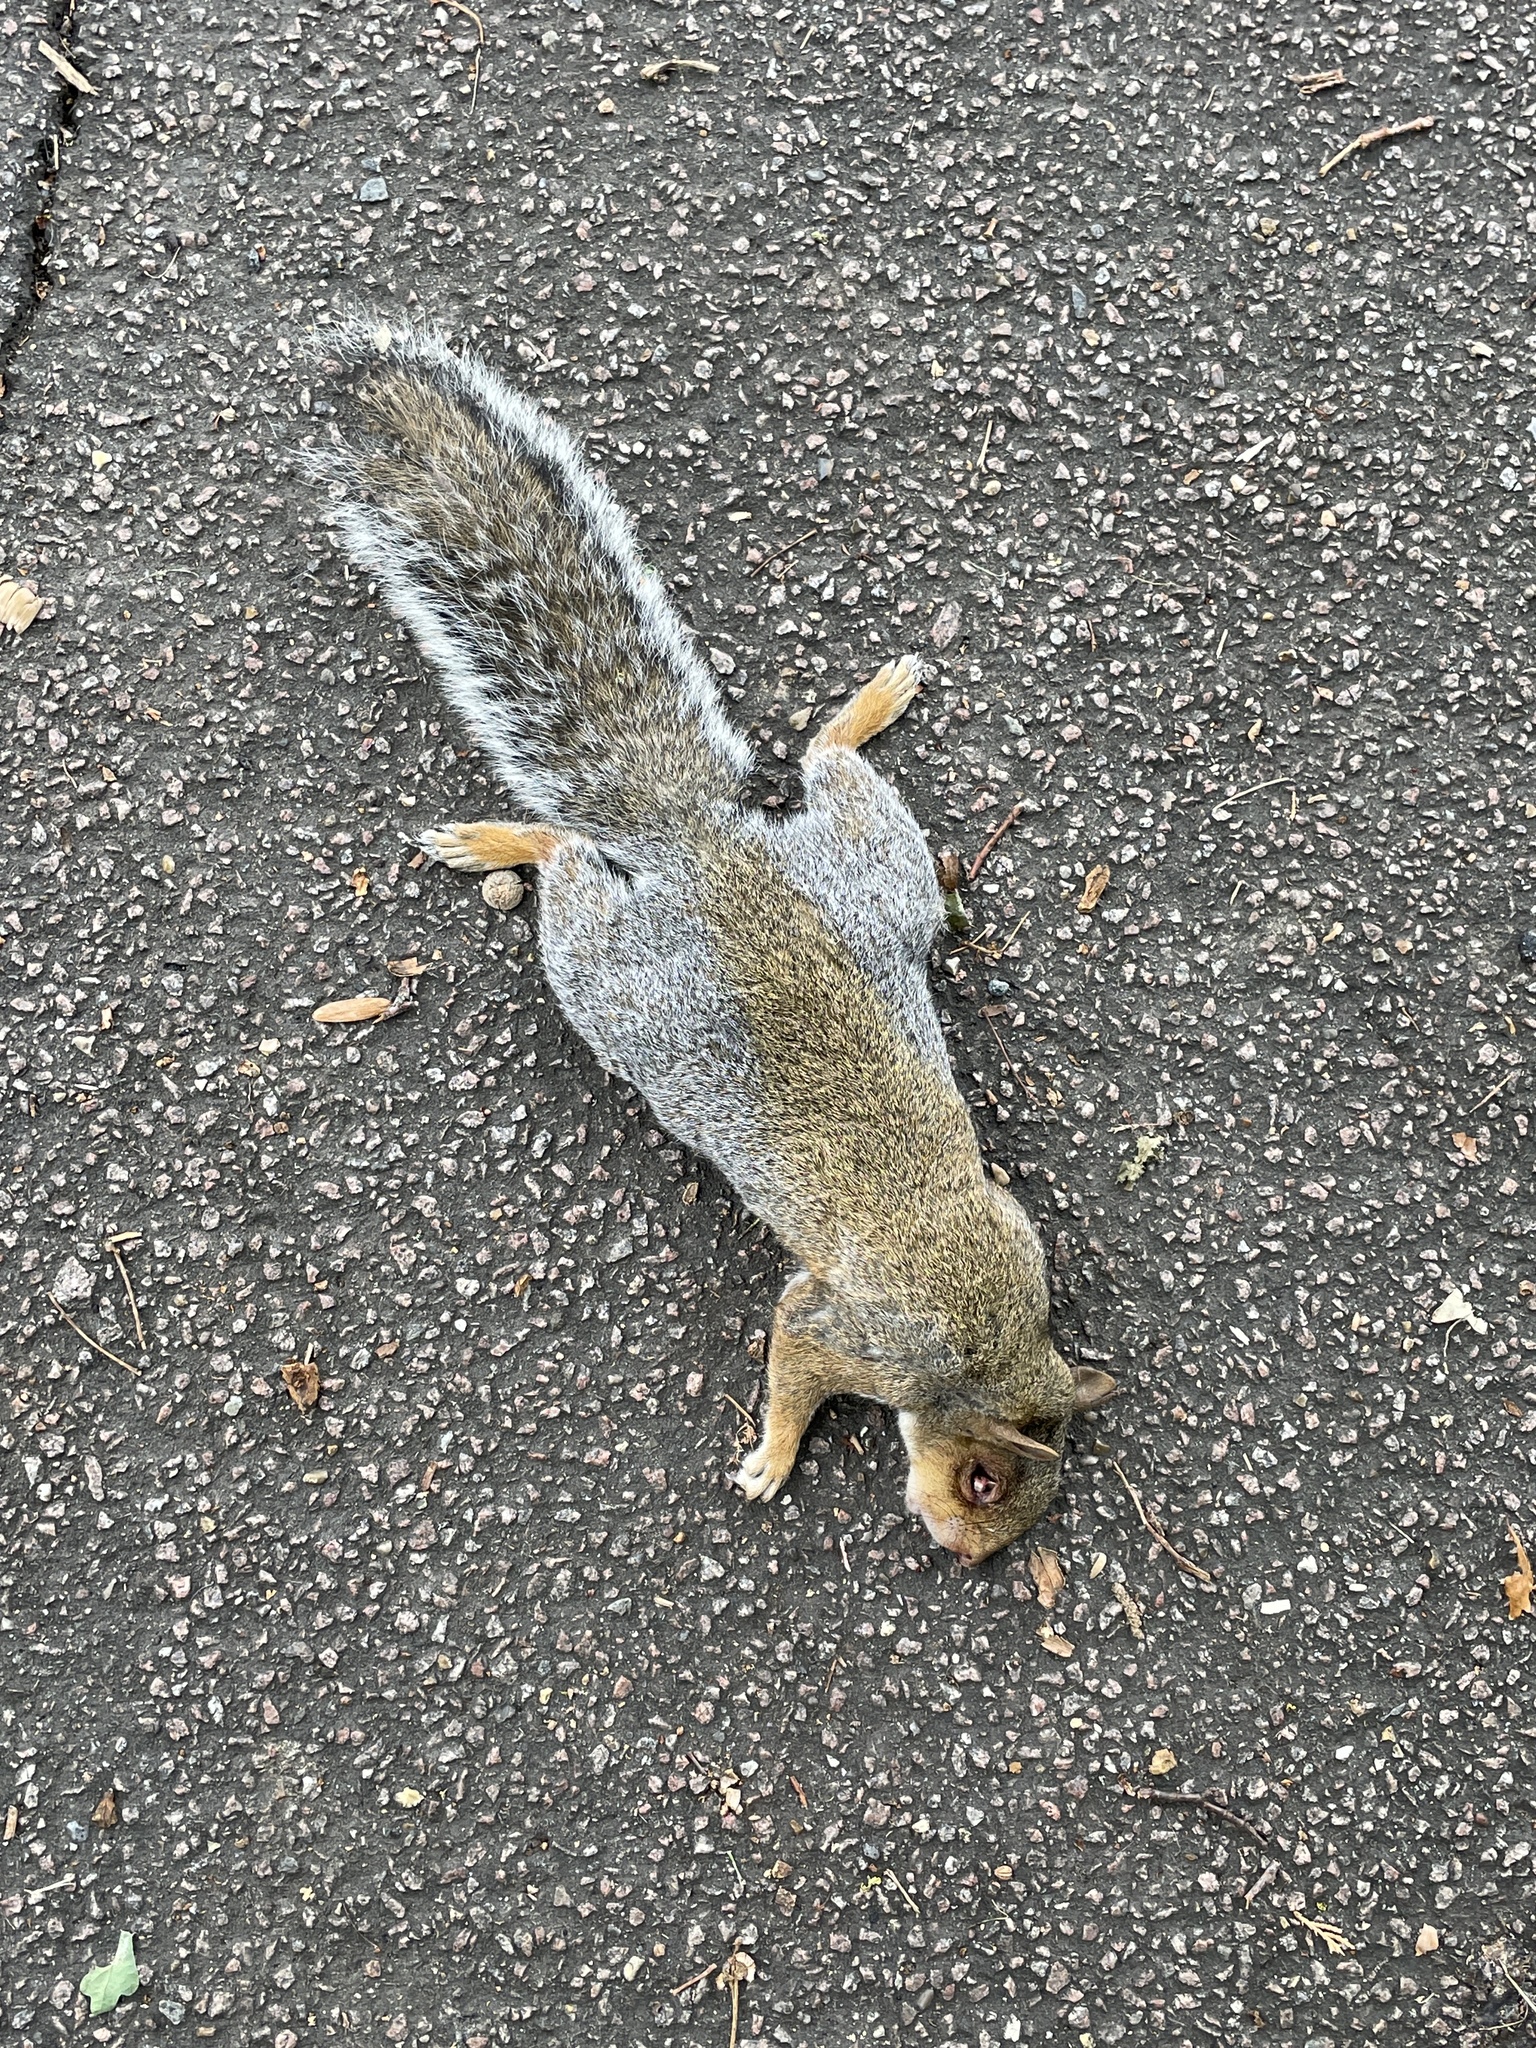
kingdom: Animalia
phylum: Chordata
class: Mammalia
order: Rodentia
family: Sciuridae
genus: Sciurus
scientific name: Sciurus carolinensis
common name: Eastern gray squirrel
